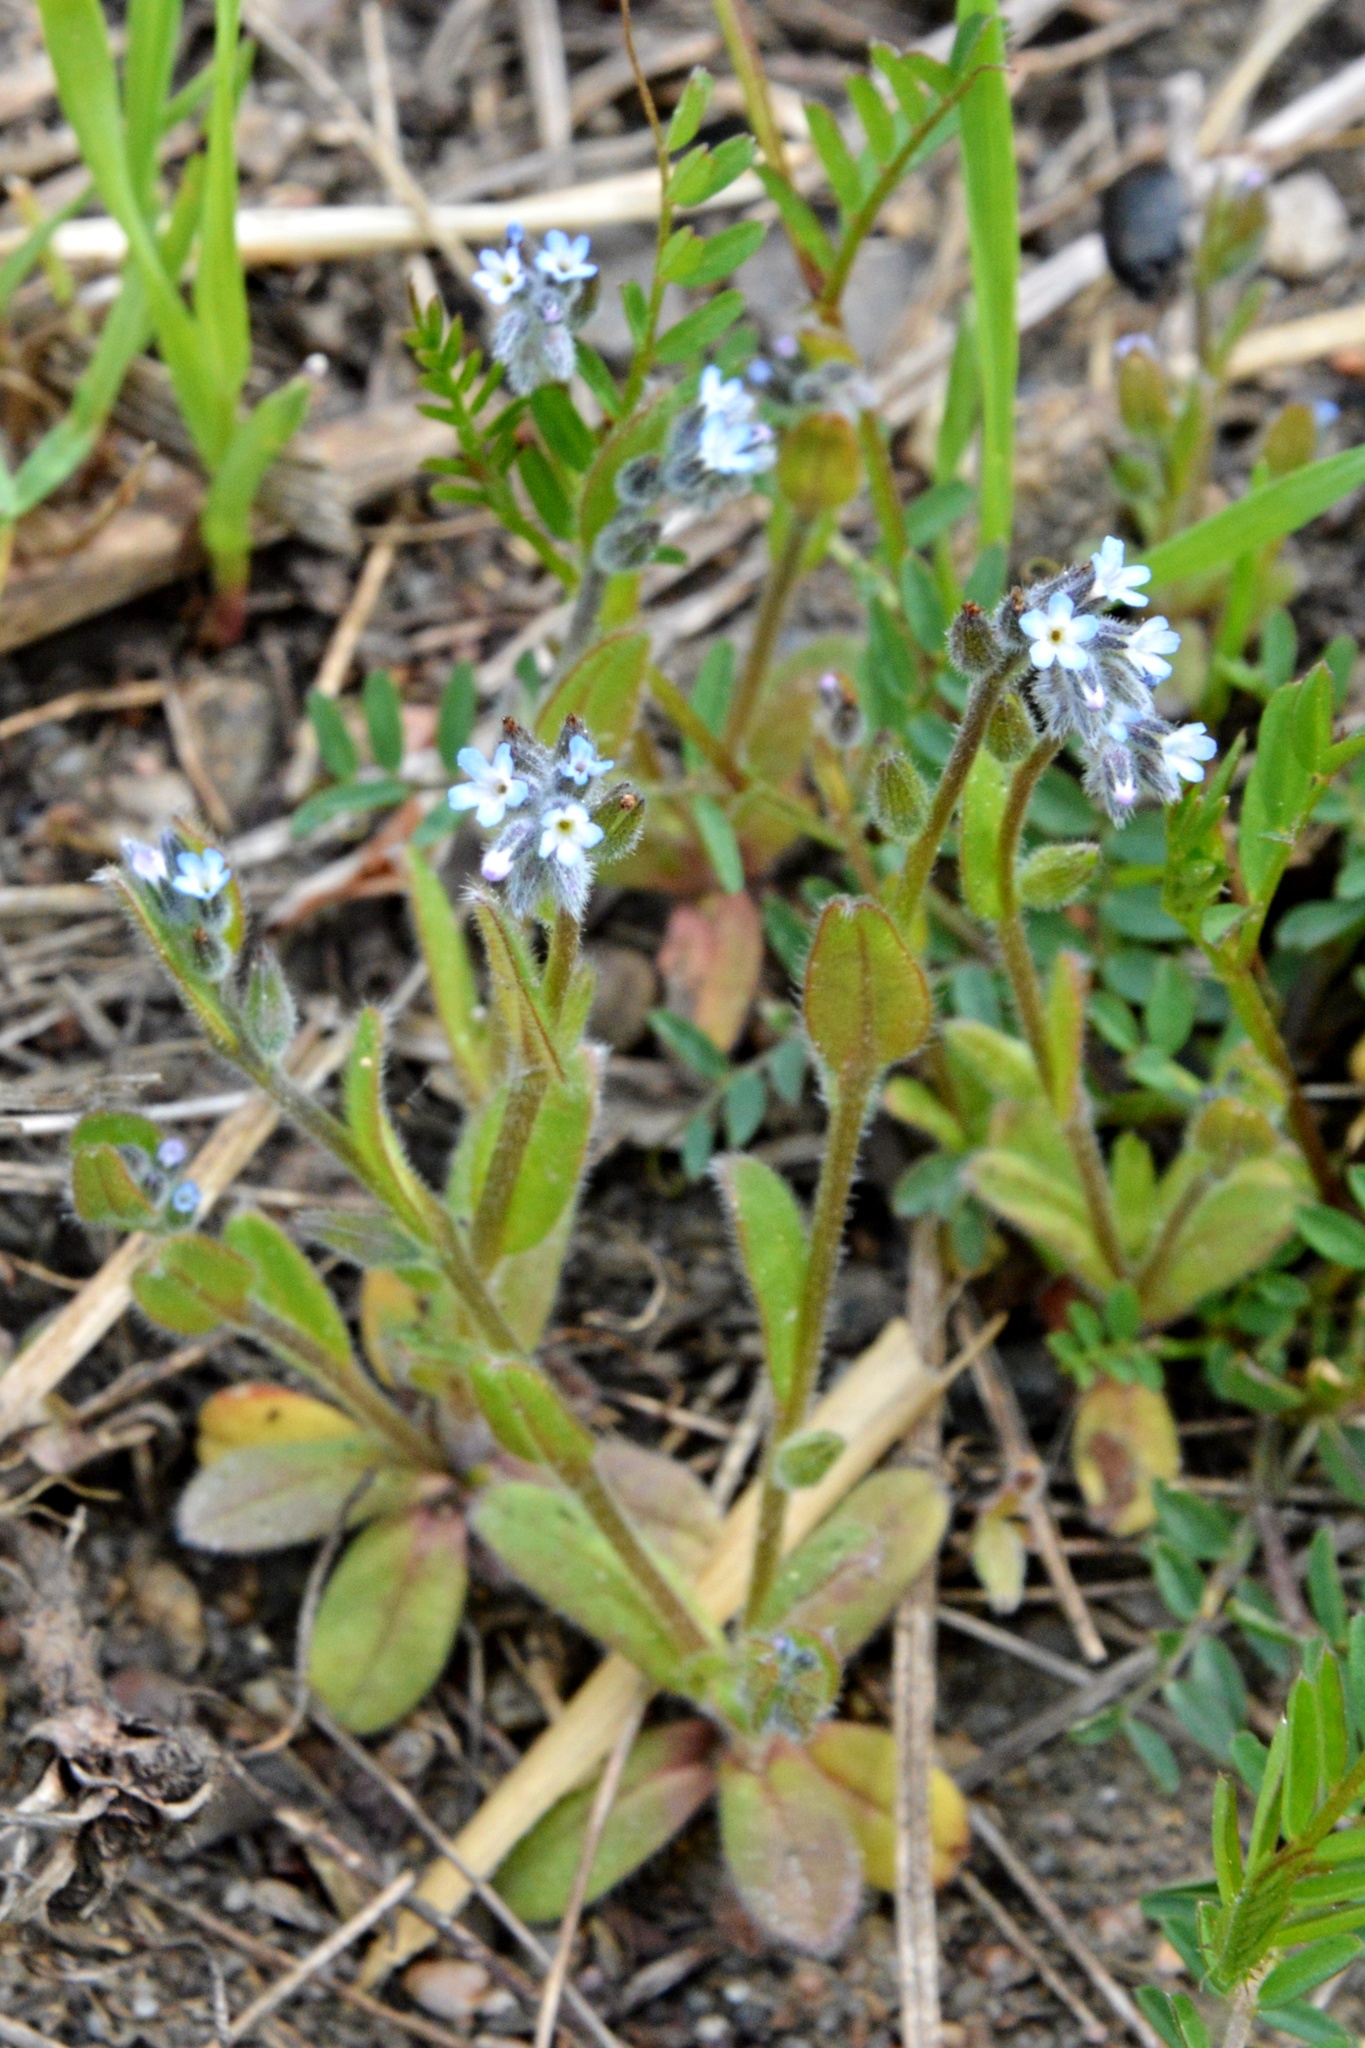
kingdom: Plantae
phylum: Tracheophyta
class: Magnoliopsida
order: Boraginales
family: Boraginaceae
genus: Myosotis
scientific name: Myosotis stricta
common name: Strict forget-me-not
